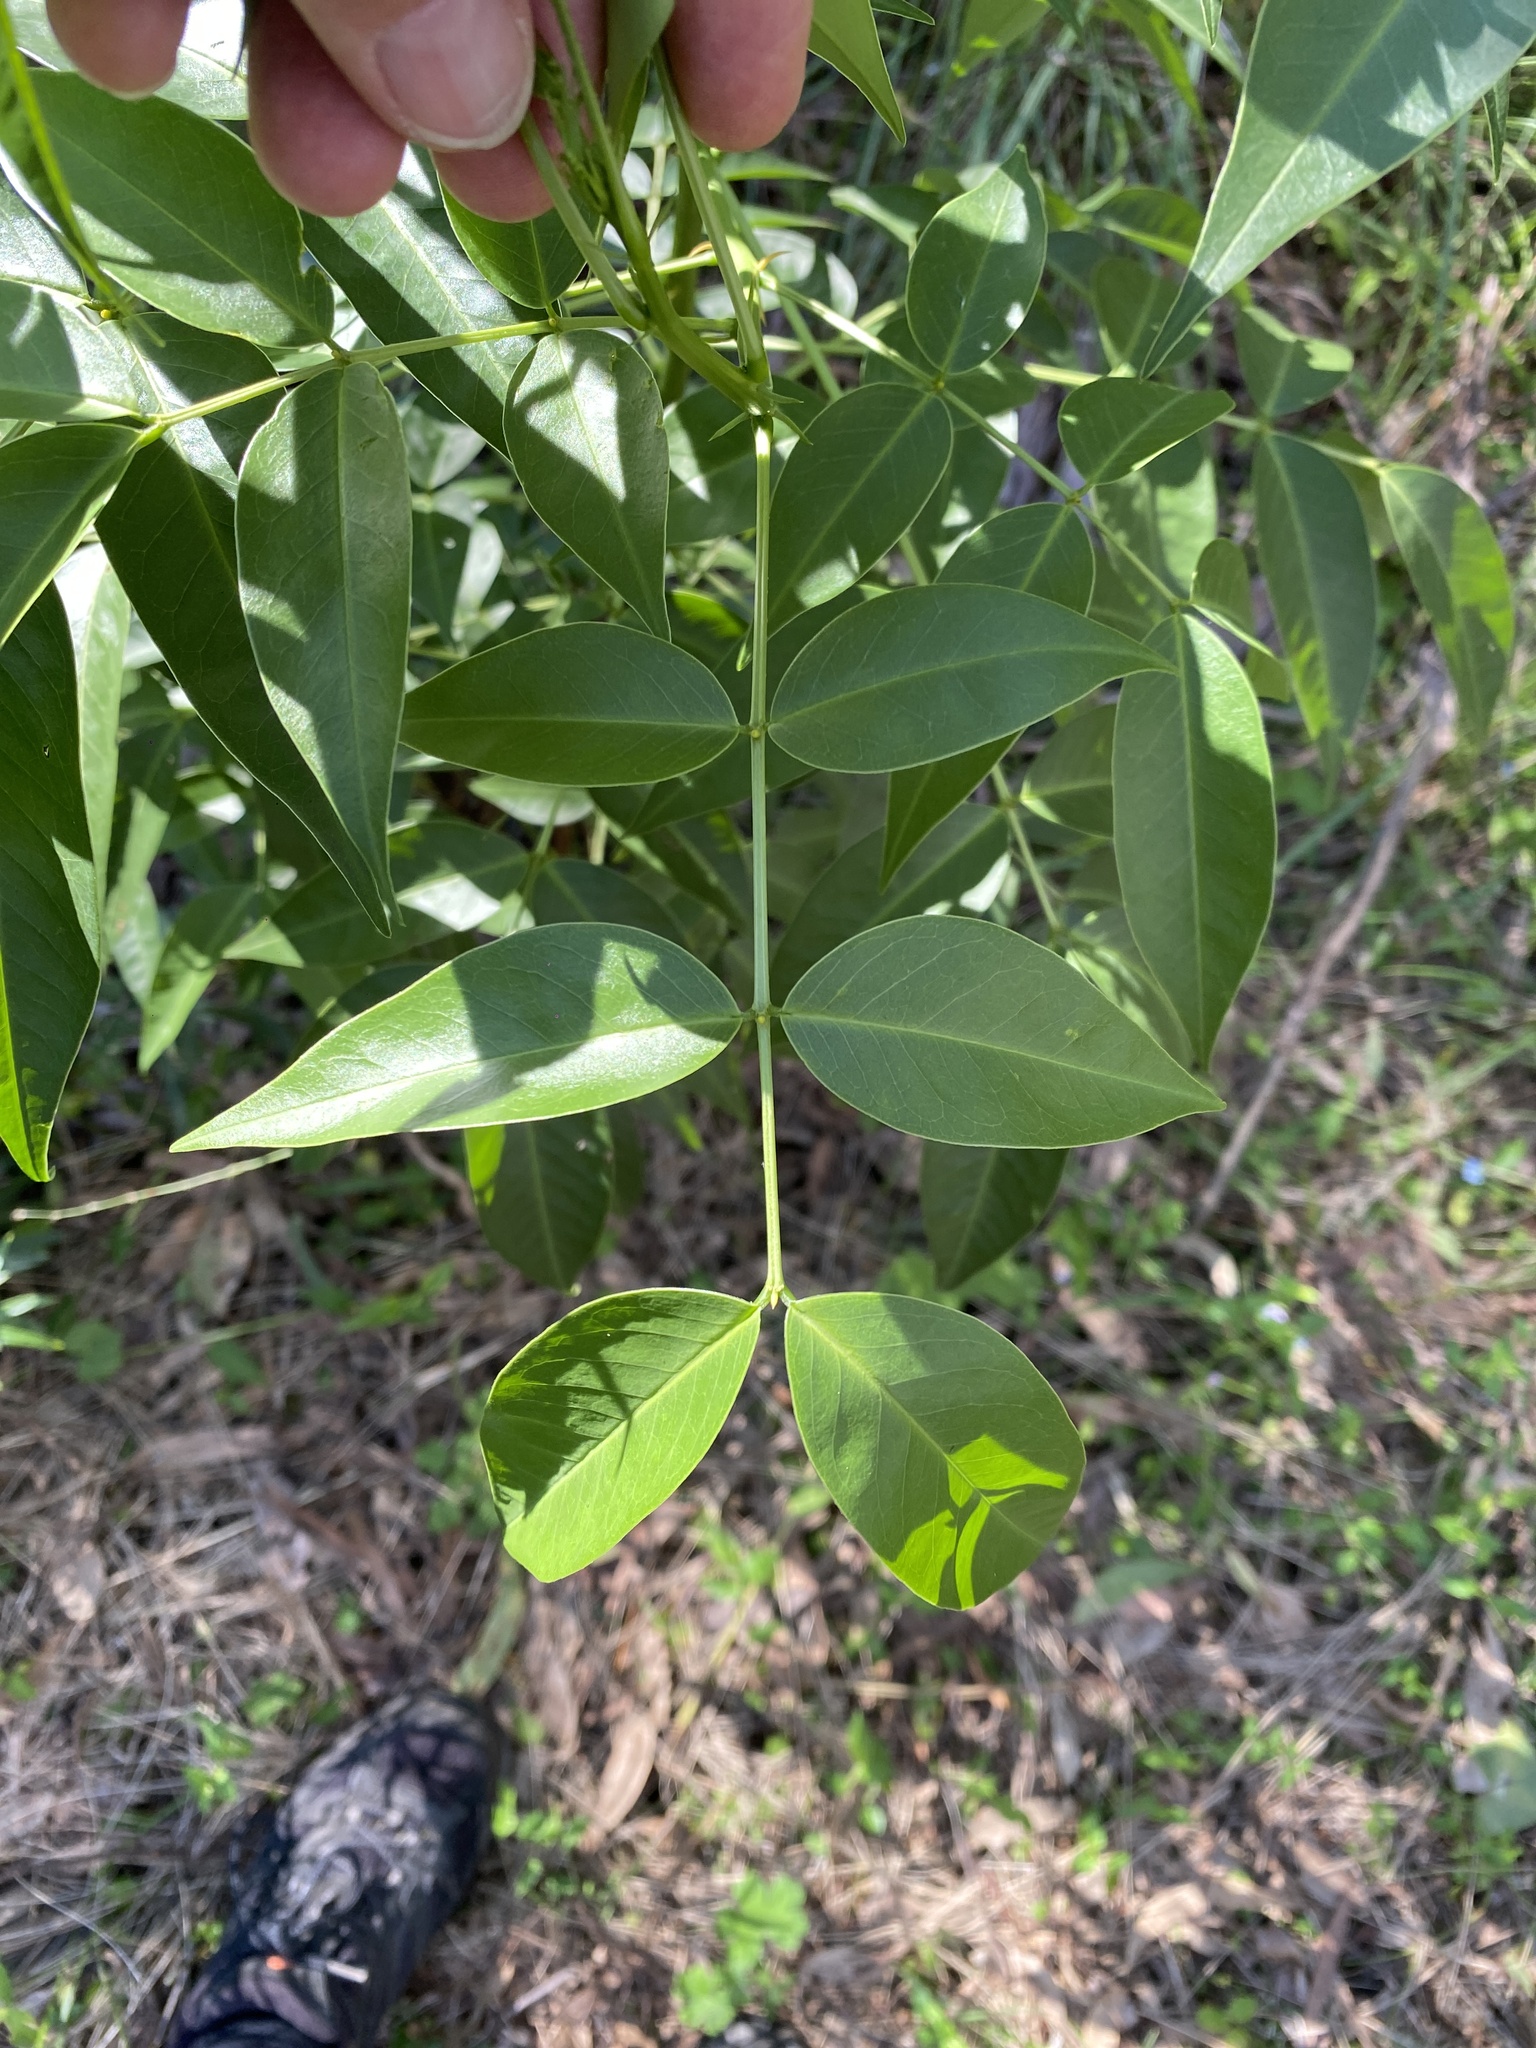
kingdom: Plantae
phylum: Tracheophyta
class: Magnoliopsida
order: Fabales
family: Fabaceae
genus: Senna
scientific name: Senna septemtrionalis
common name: Arsenic bush
